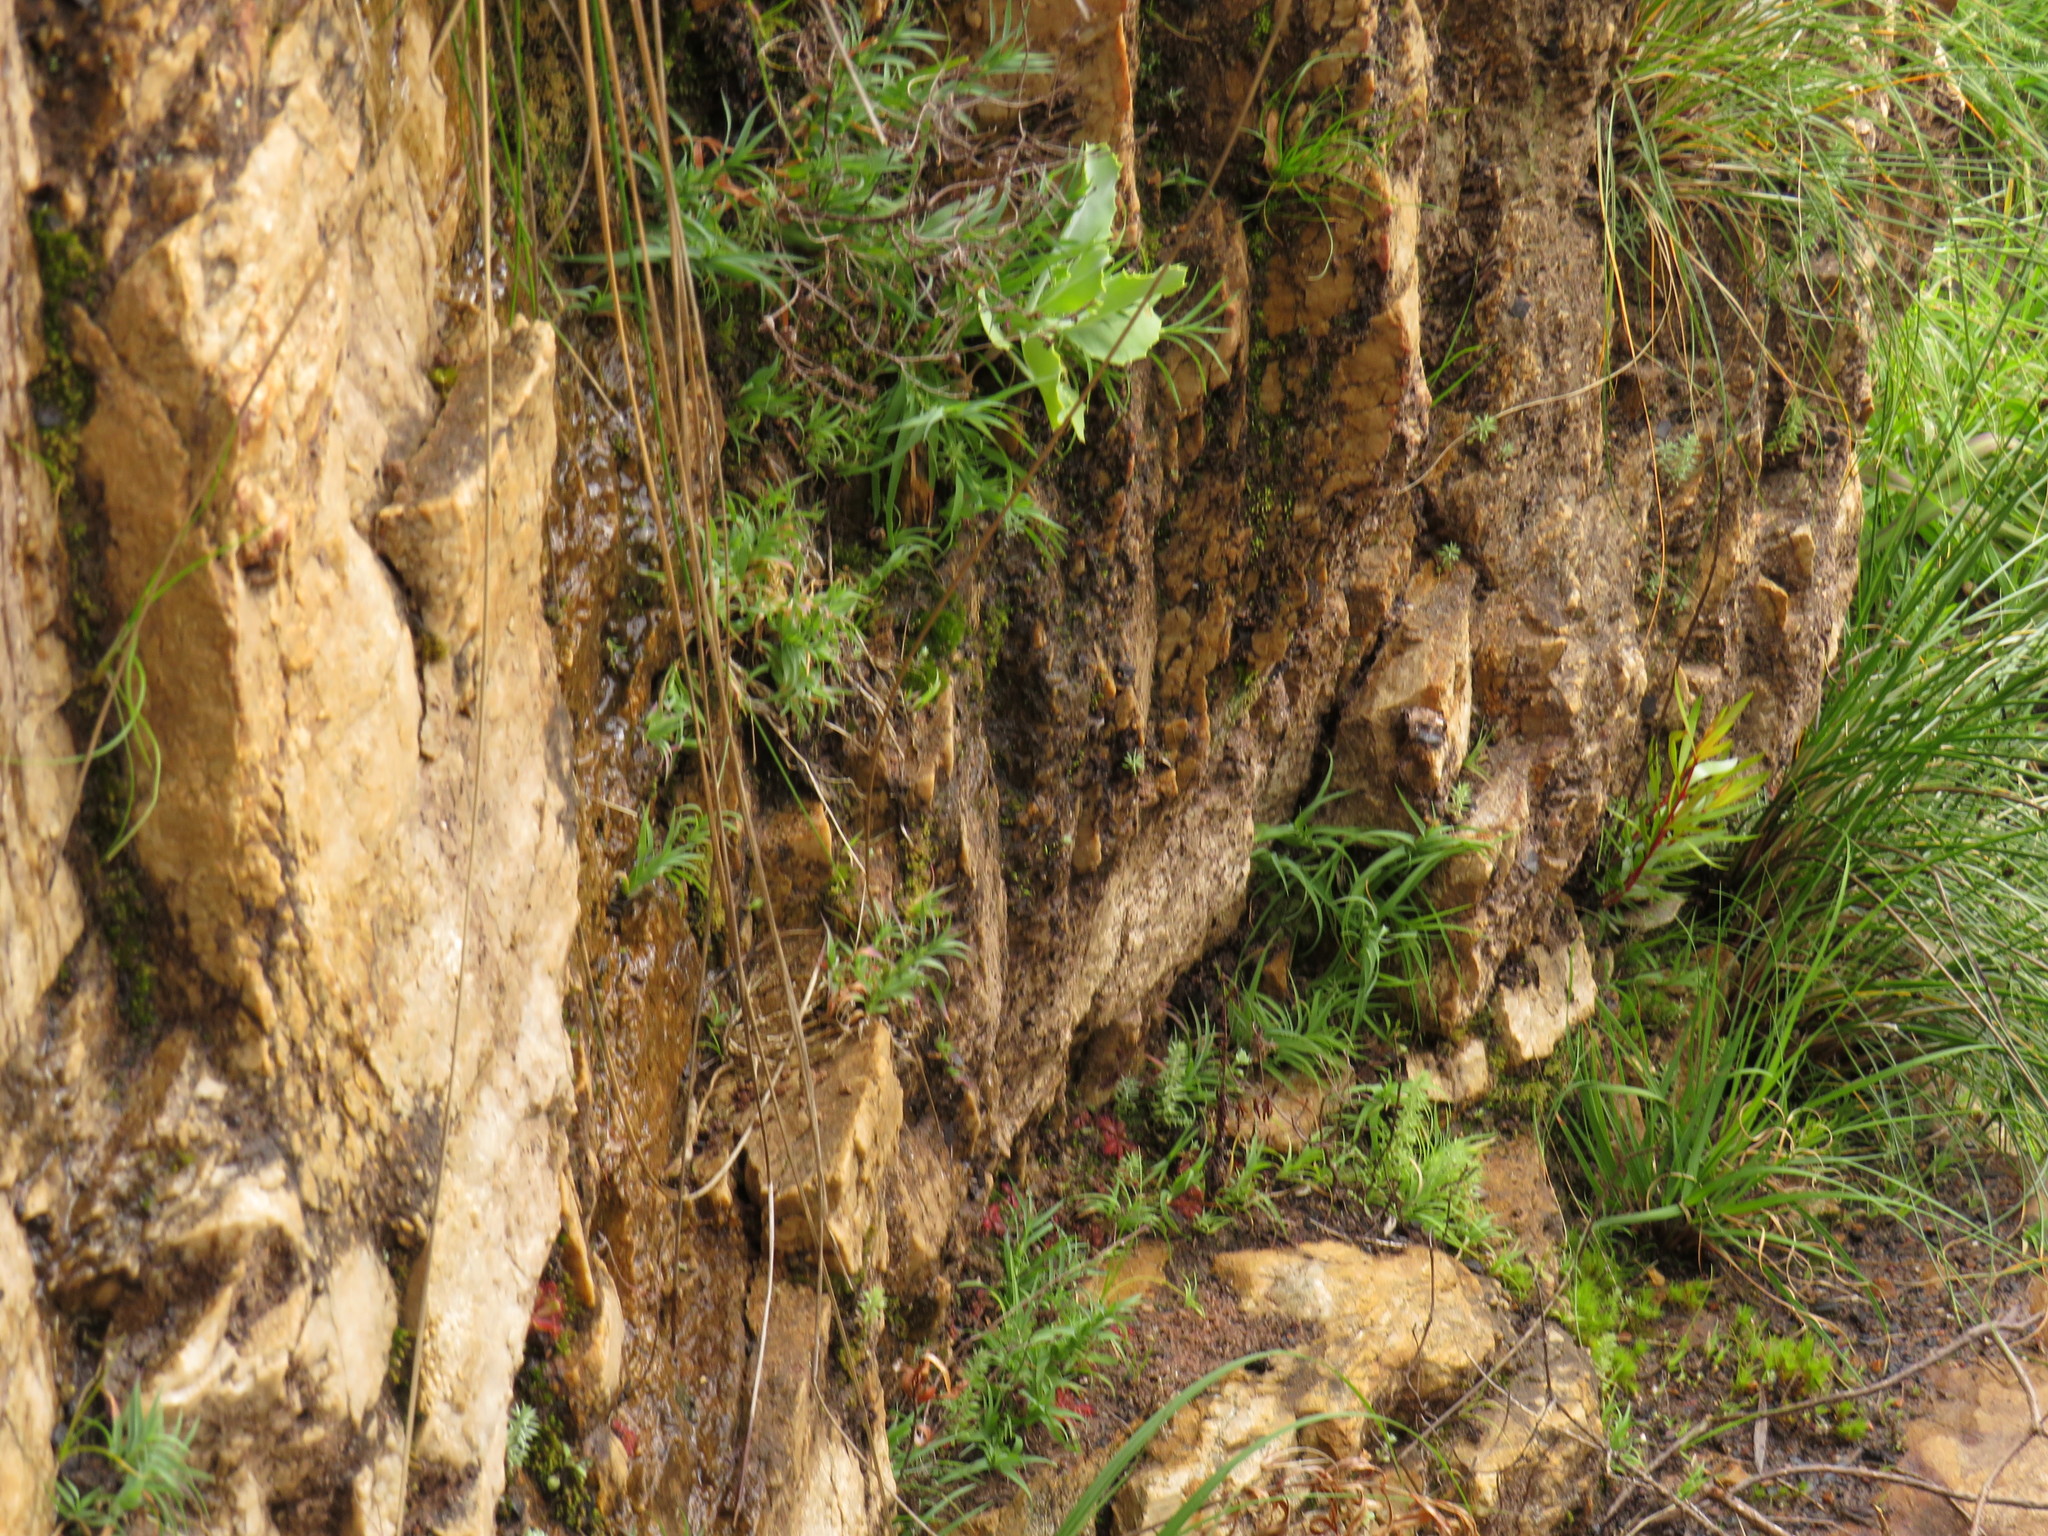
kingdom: Plantae
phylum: Tracheophyta
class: Liliopsida
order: Poales
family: Poaceae
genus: Pentameris
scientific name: Pentameris densifolia
